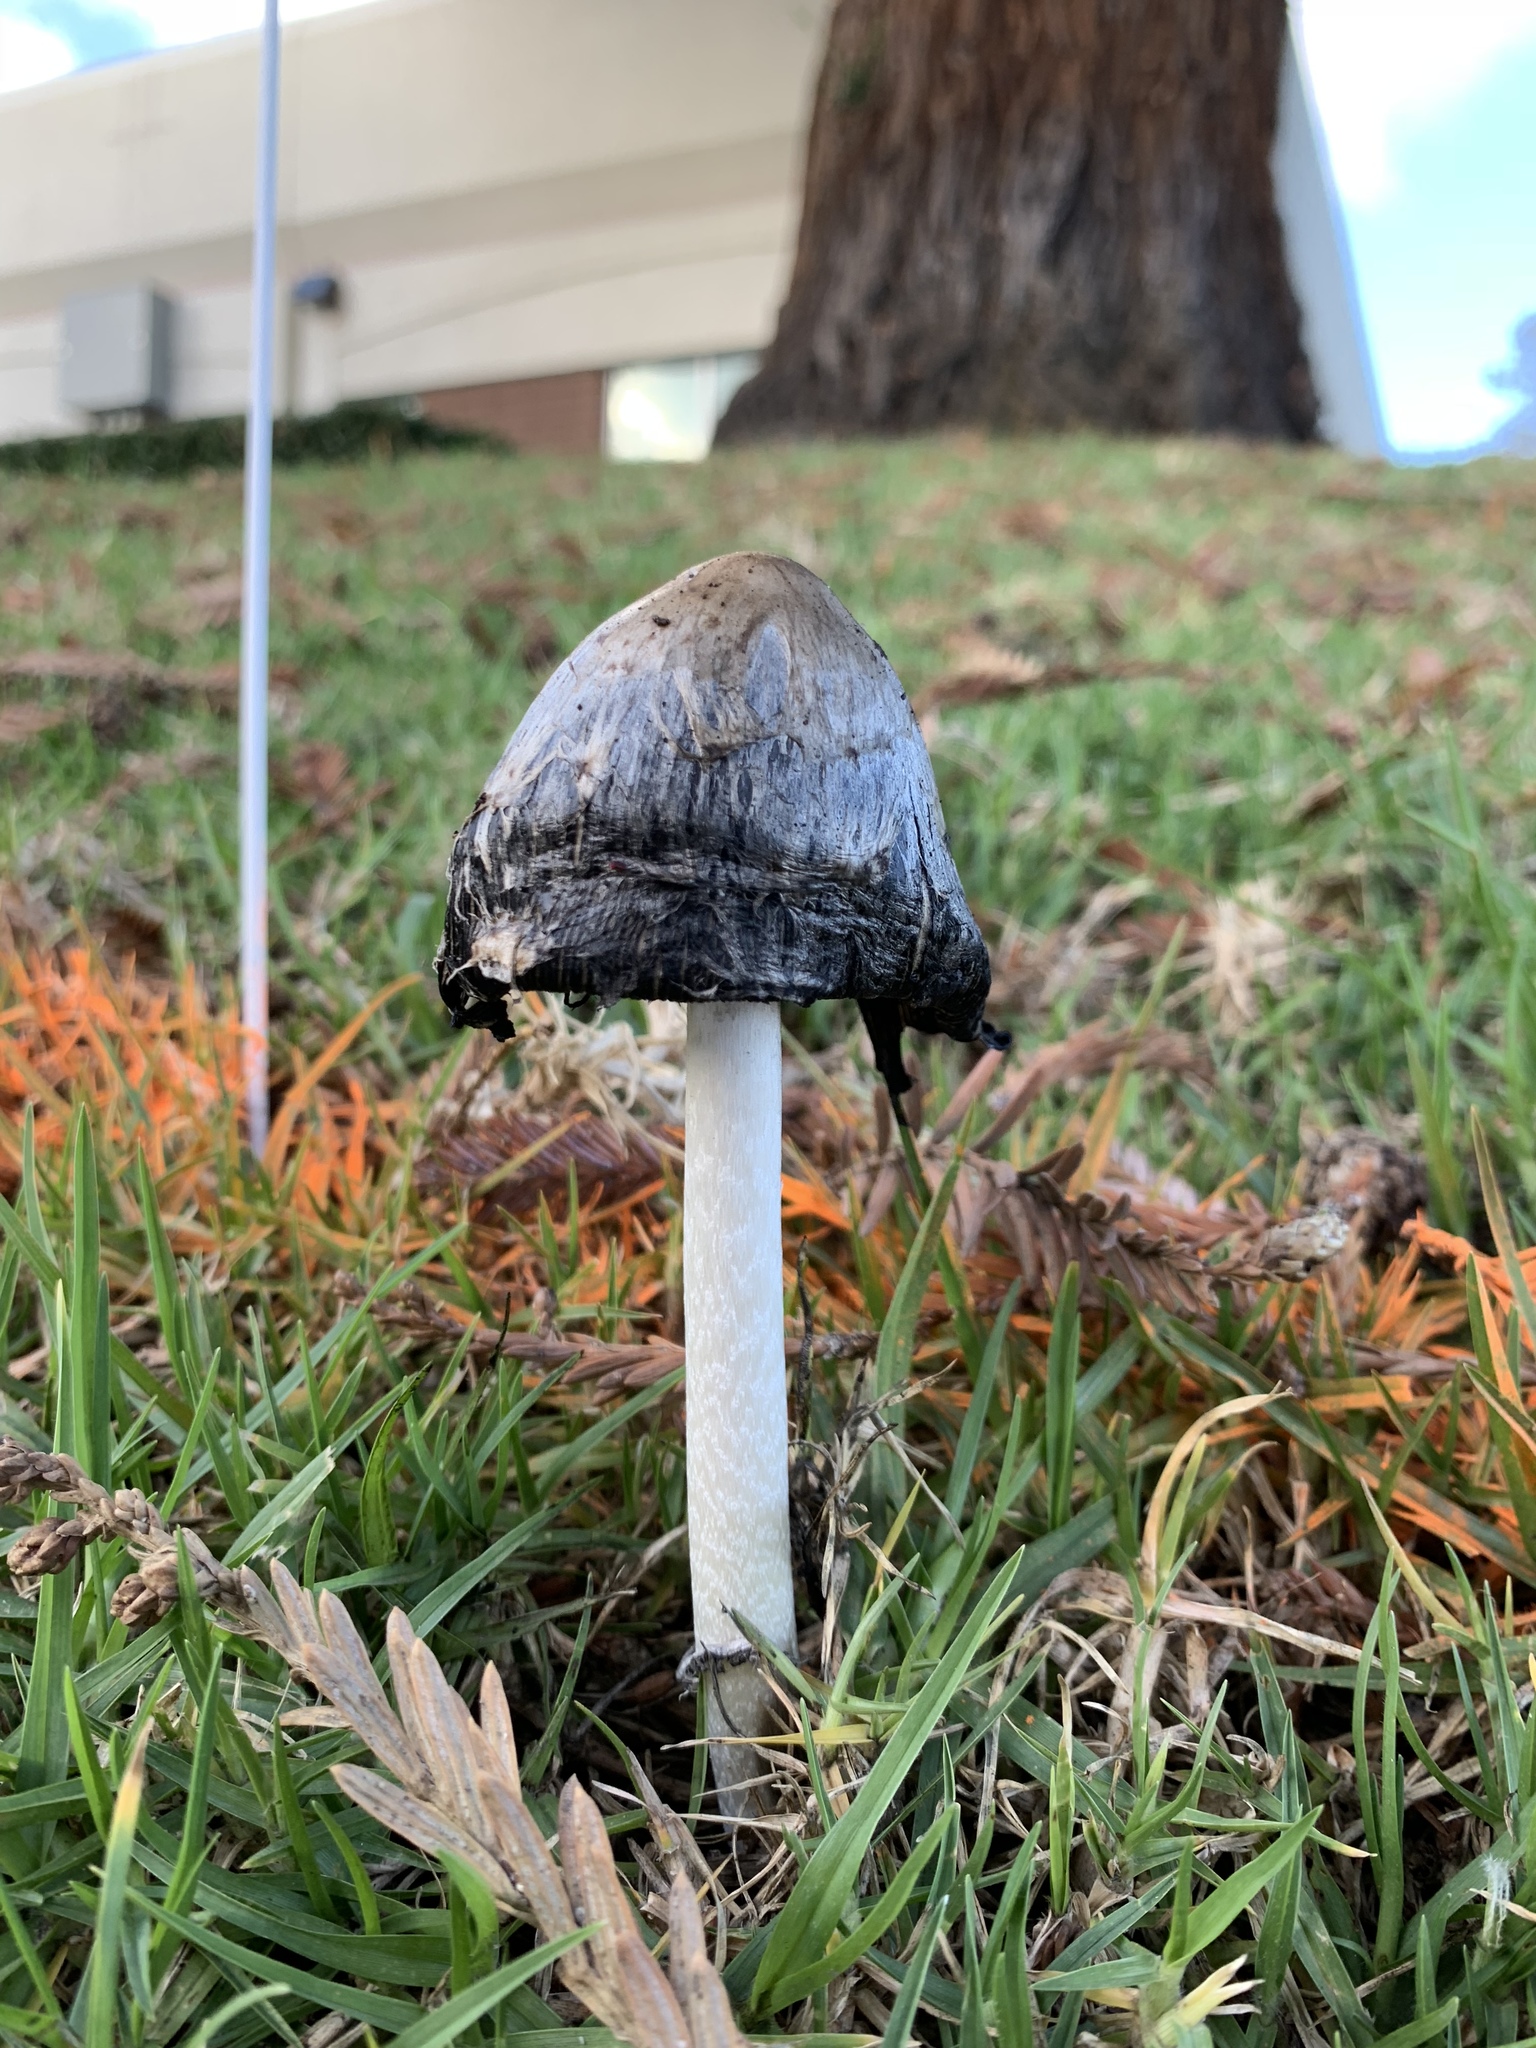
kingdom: Fungi
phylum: Basidiomycota
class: Agaricomycetes
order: Agaricales
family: Agaricaceae
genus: Coprinus
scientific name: Coprinus comatus
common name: Lawyer's wig
